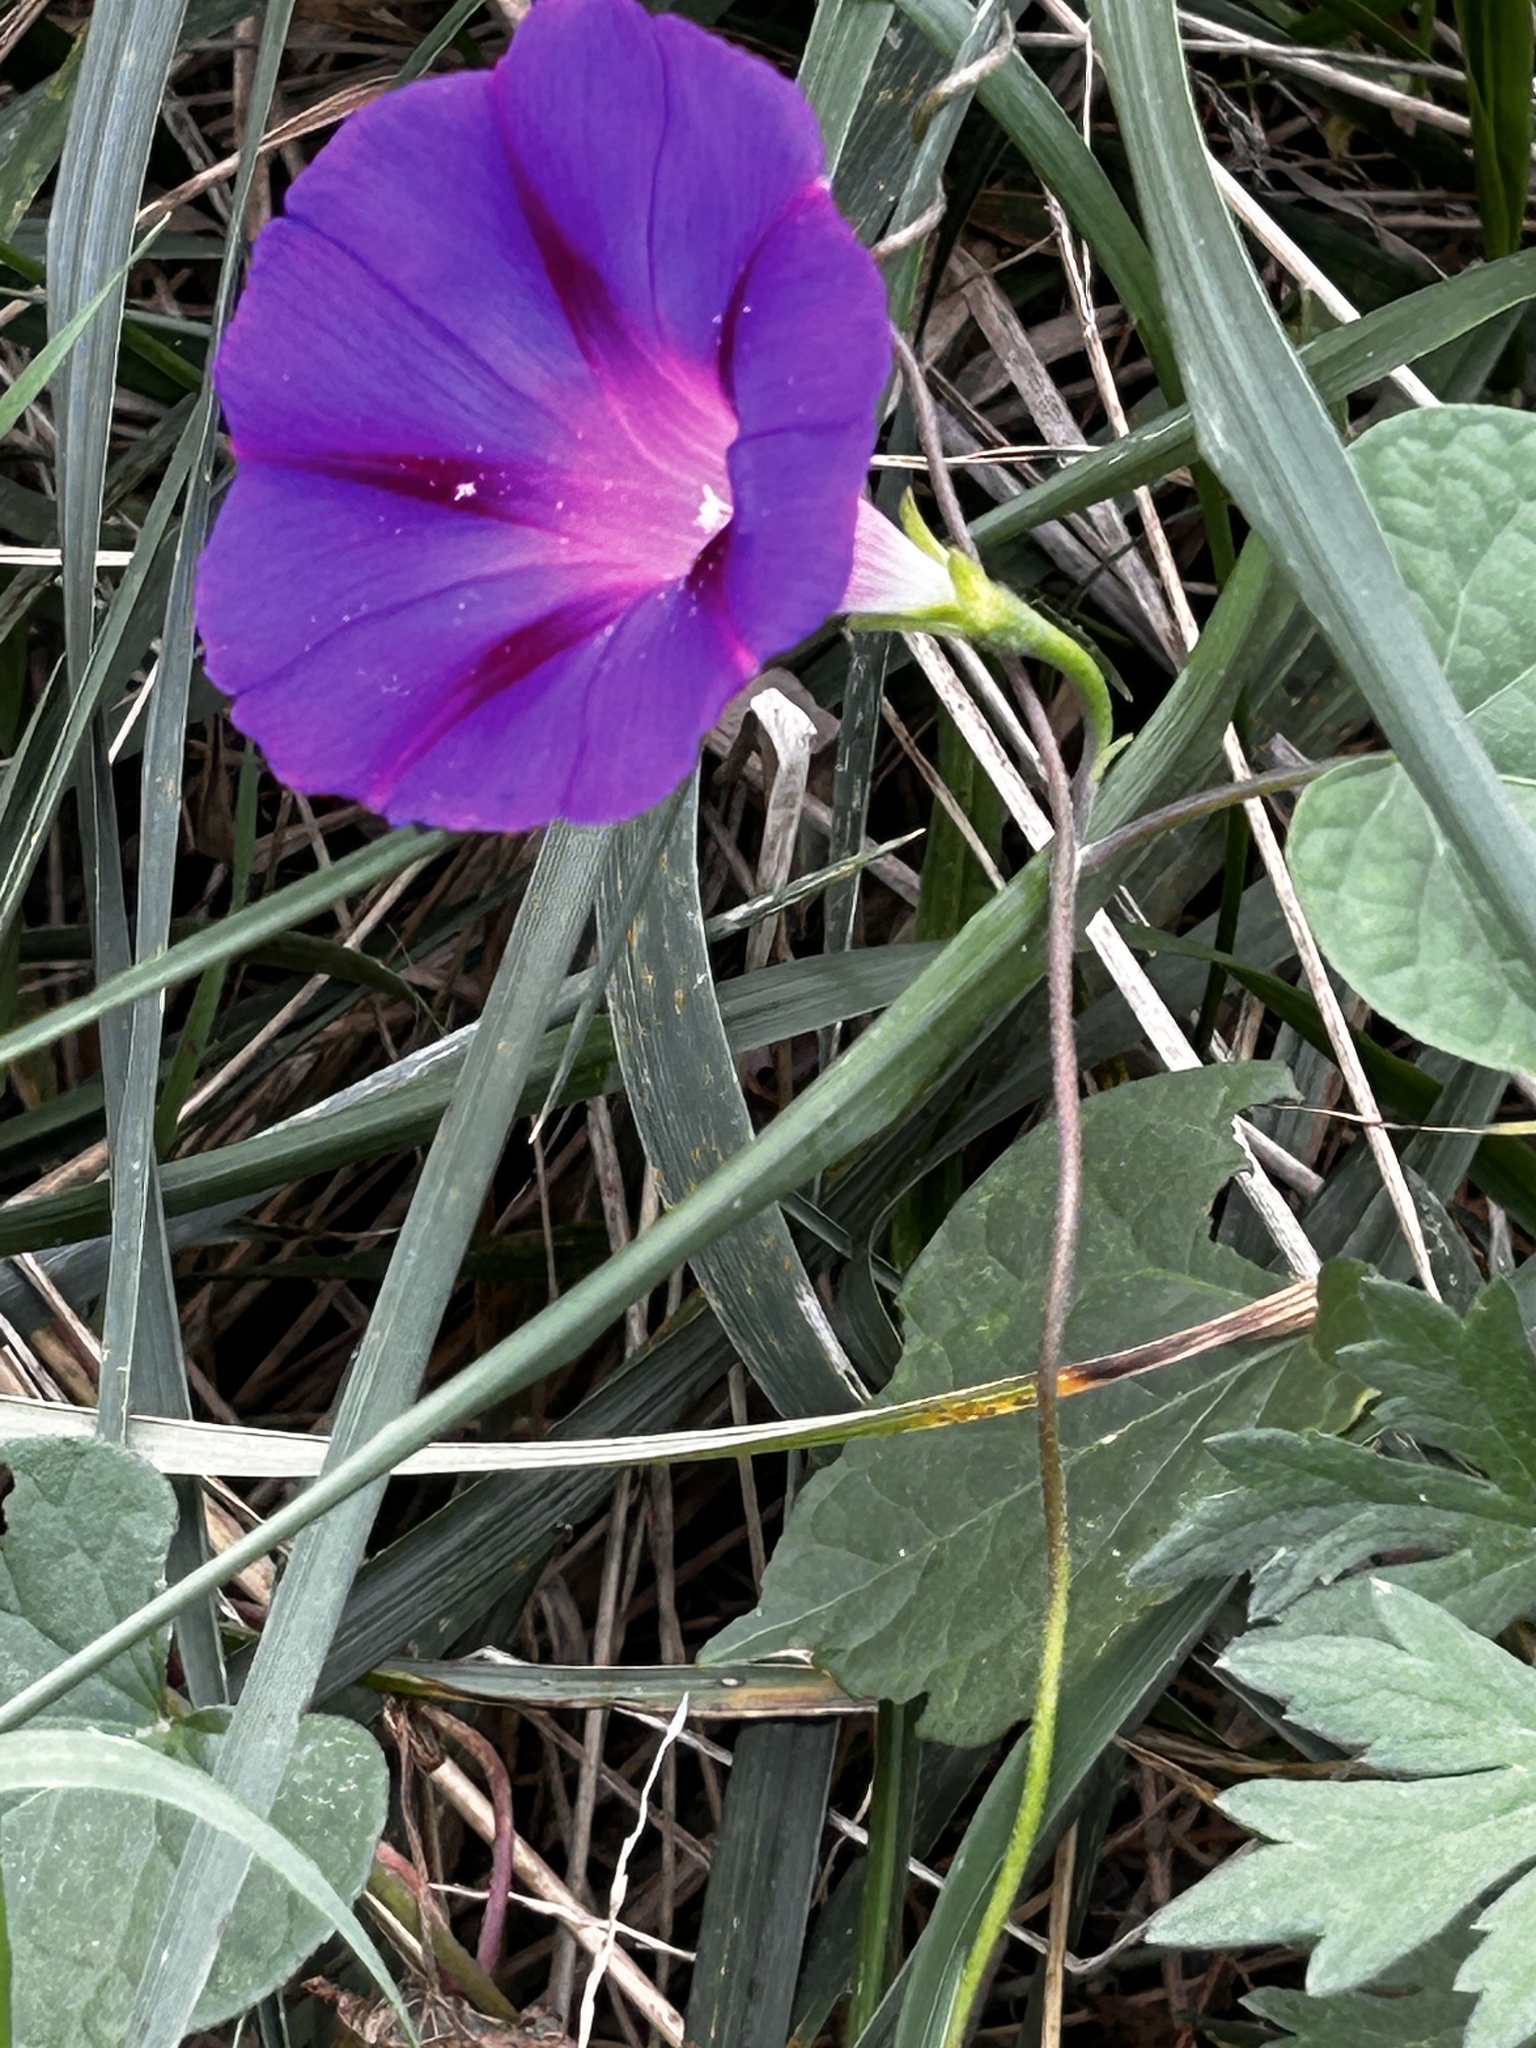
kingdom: Plantae
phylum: Tracheophyta
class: Magnoliopsida
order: Solanales
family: Convolvulaceae
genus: Ipomoea
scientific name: Ipomoea purpurea
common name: Common morning-glory
